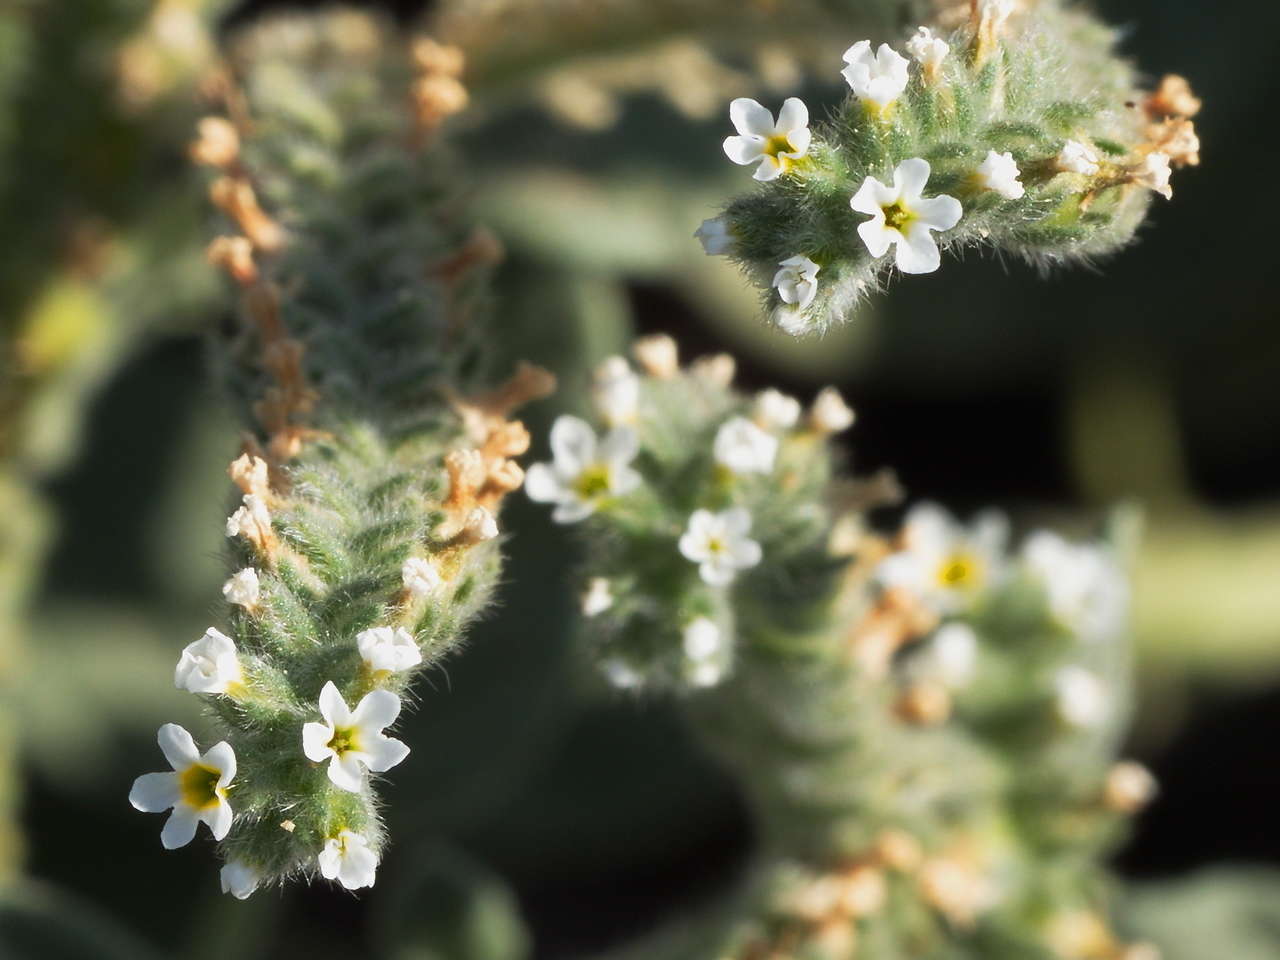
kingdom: Plantae
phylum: Tracheophyta
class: Magnoliopsida
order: Boraginales
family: Heliotropiaceae
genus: Heliotropium
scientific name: Heliotropium europaeum
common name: European heliotrope
